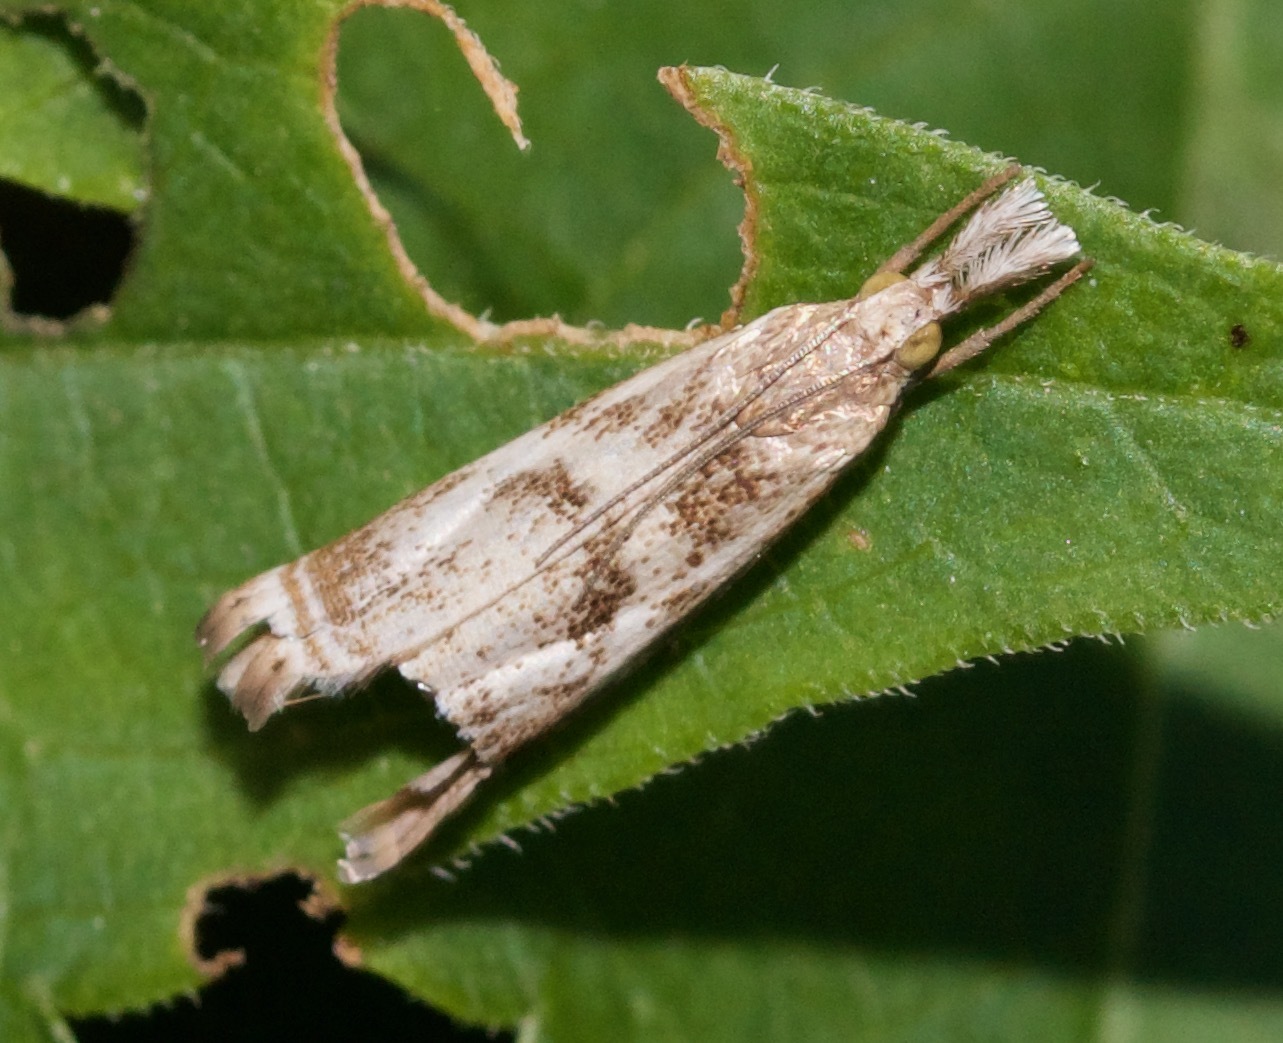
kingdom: Animalia
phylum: Arthropoda
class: Insecta
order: Lepidoptera
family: Crambidae
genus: Microcrambus
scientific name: Microcrambus elegans
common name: Elegant grass-veneer
